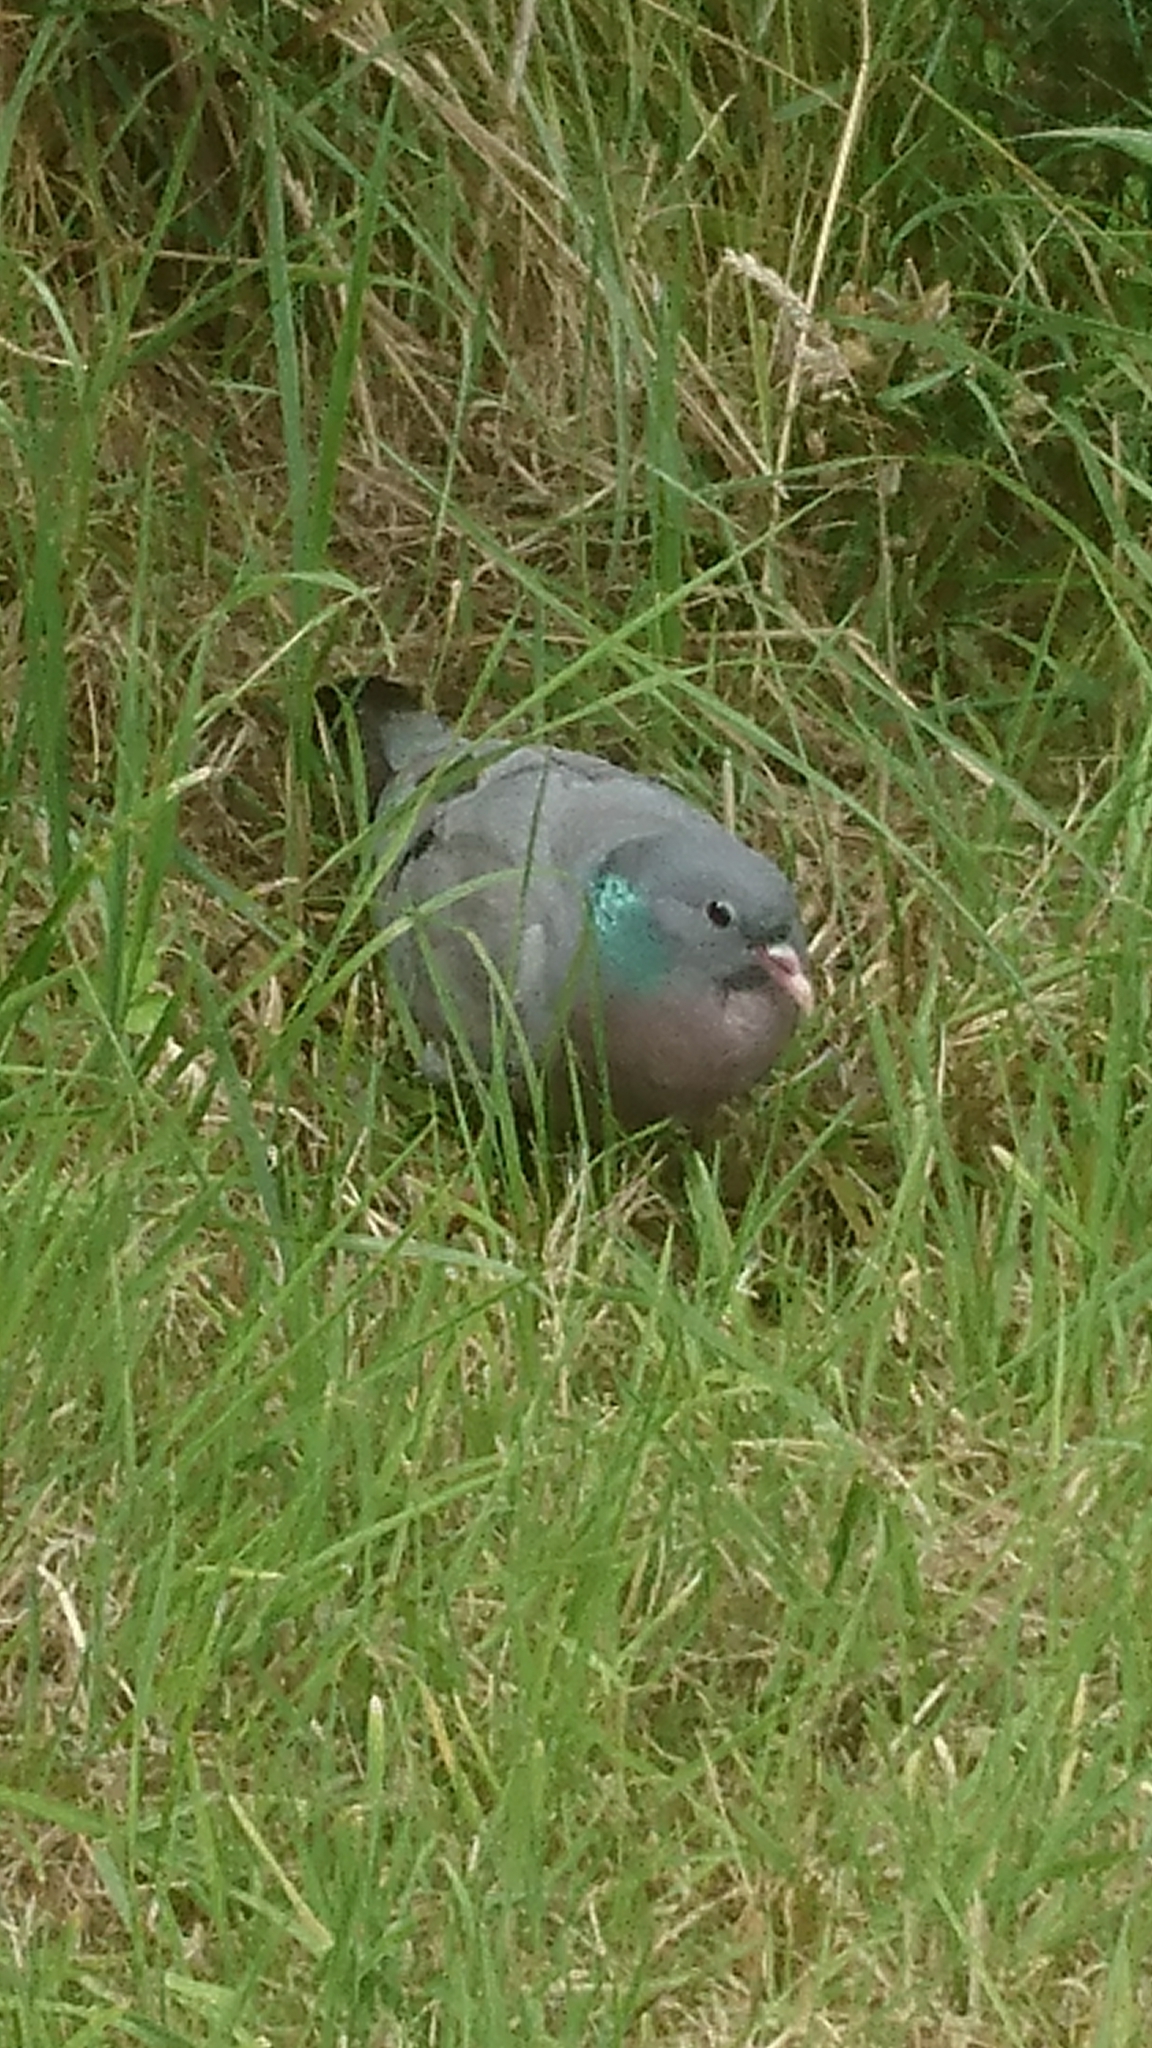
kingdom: Animalia
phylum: Chordata
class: Aves
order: Columbiformes
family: Columbidae
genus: Columba
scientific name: Columba oenas
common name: Stock dove
